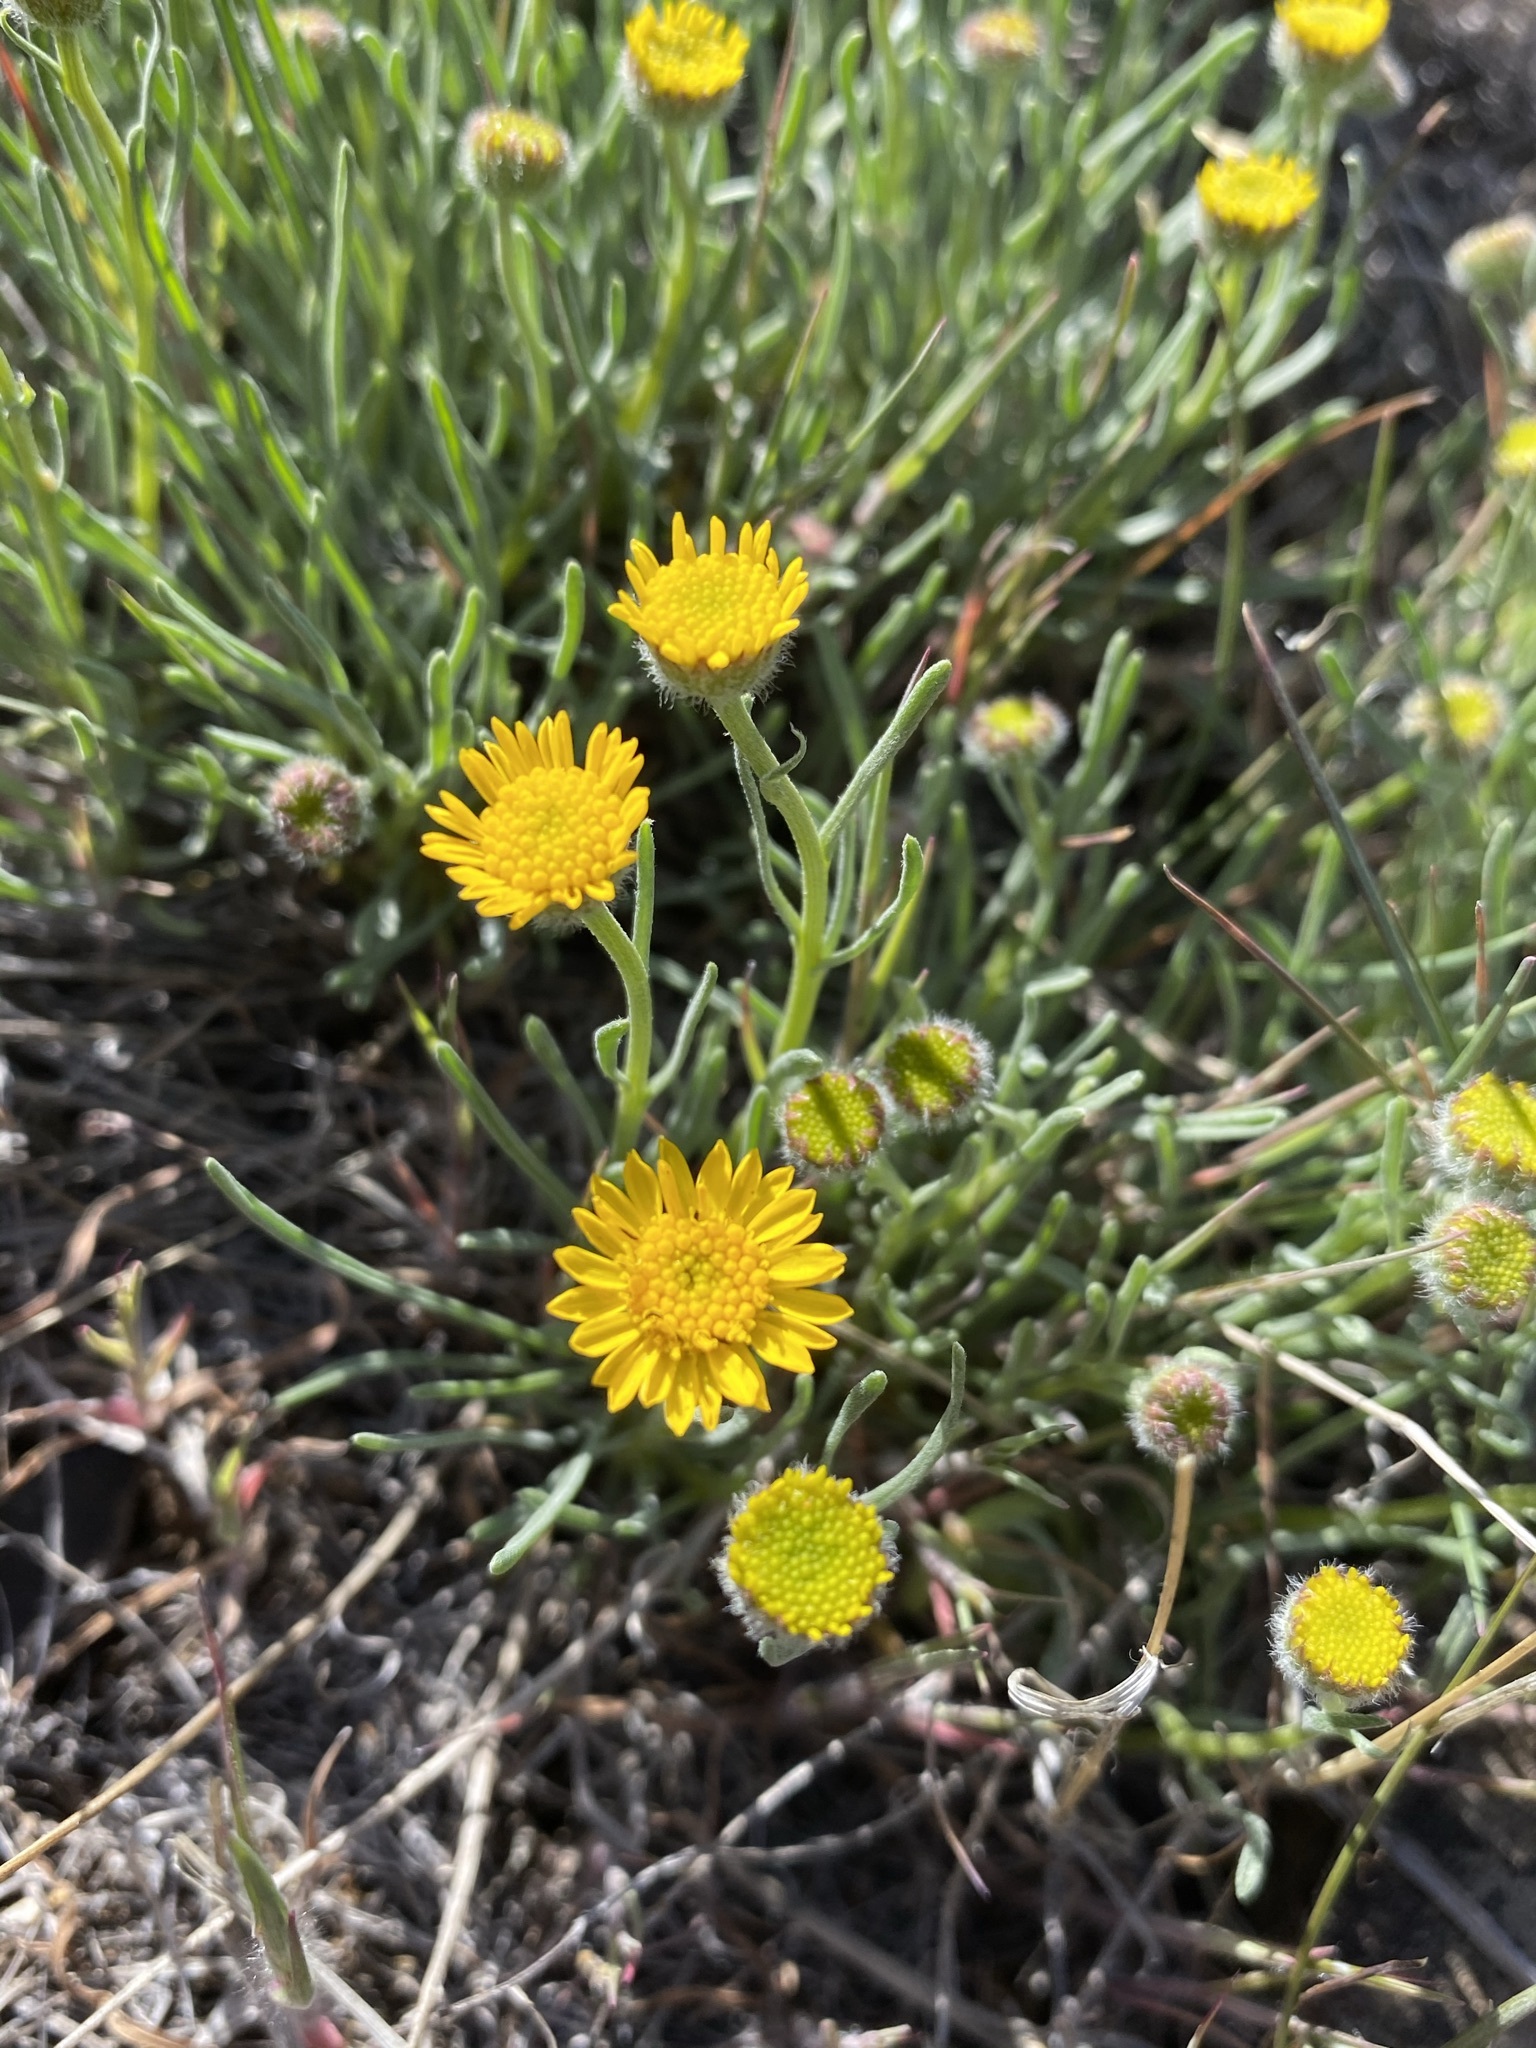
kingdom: Plantae
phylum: Tracheophyta
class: Magnoliopsida
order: Asterales
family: Asteraceae
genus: Erigeron
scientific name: Erigeron linearis
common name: Desert yellow fleabane
